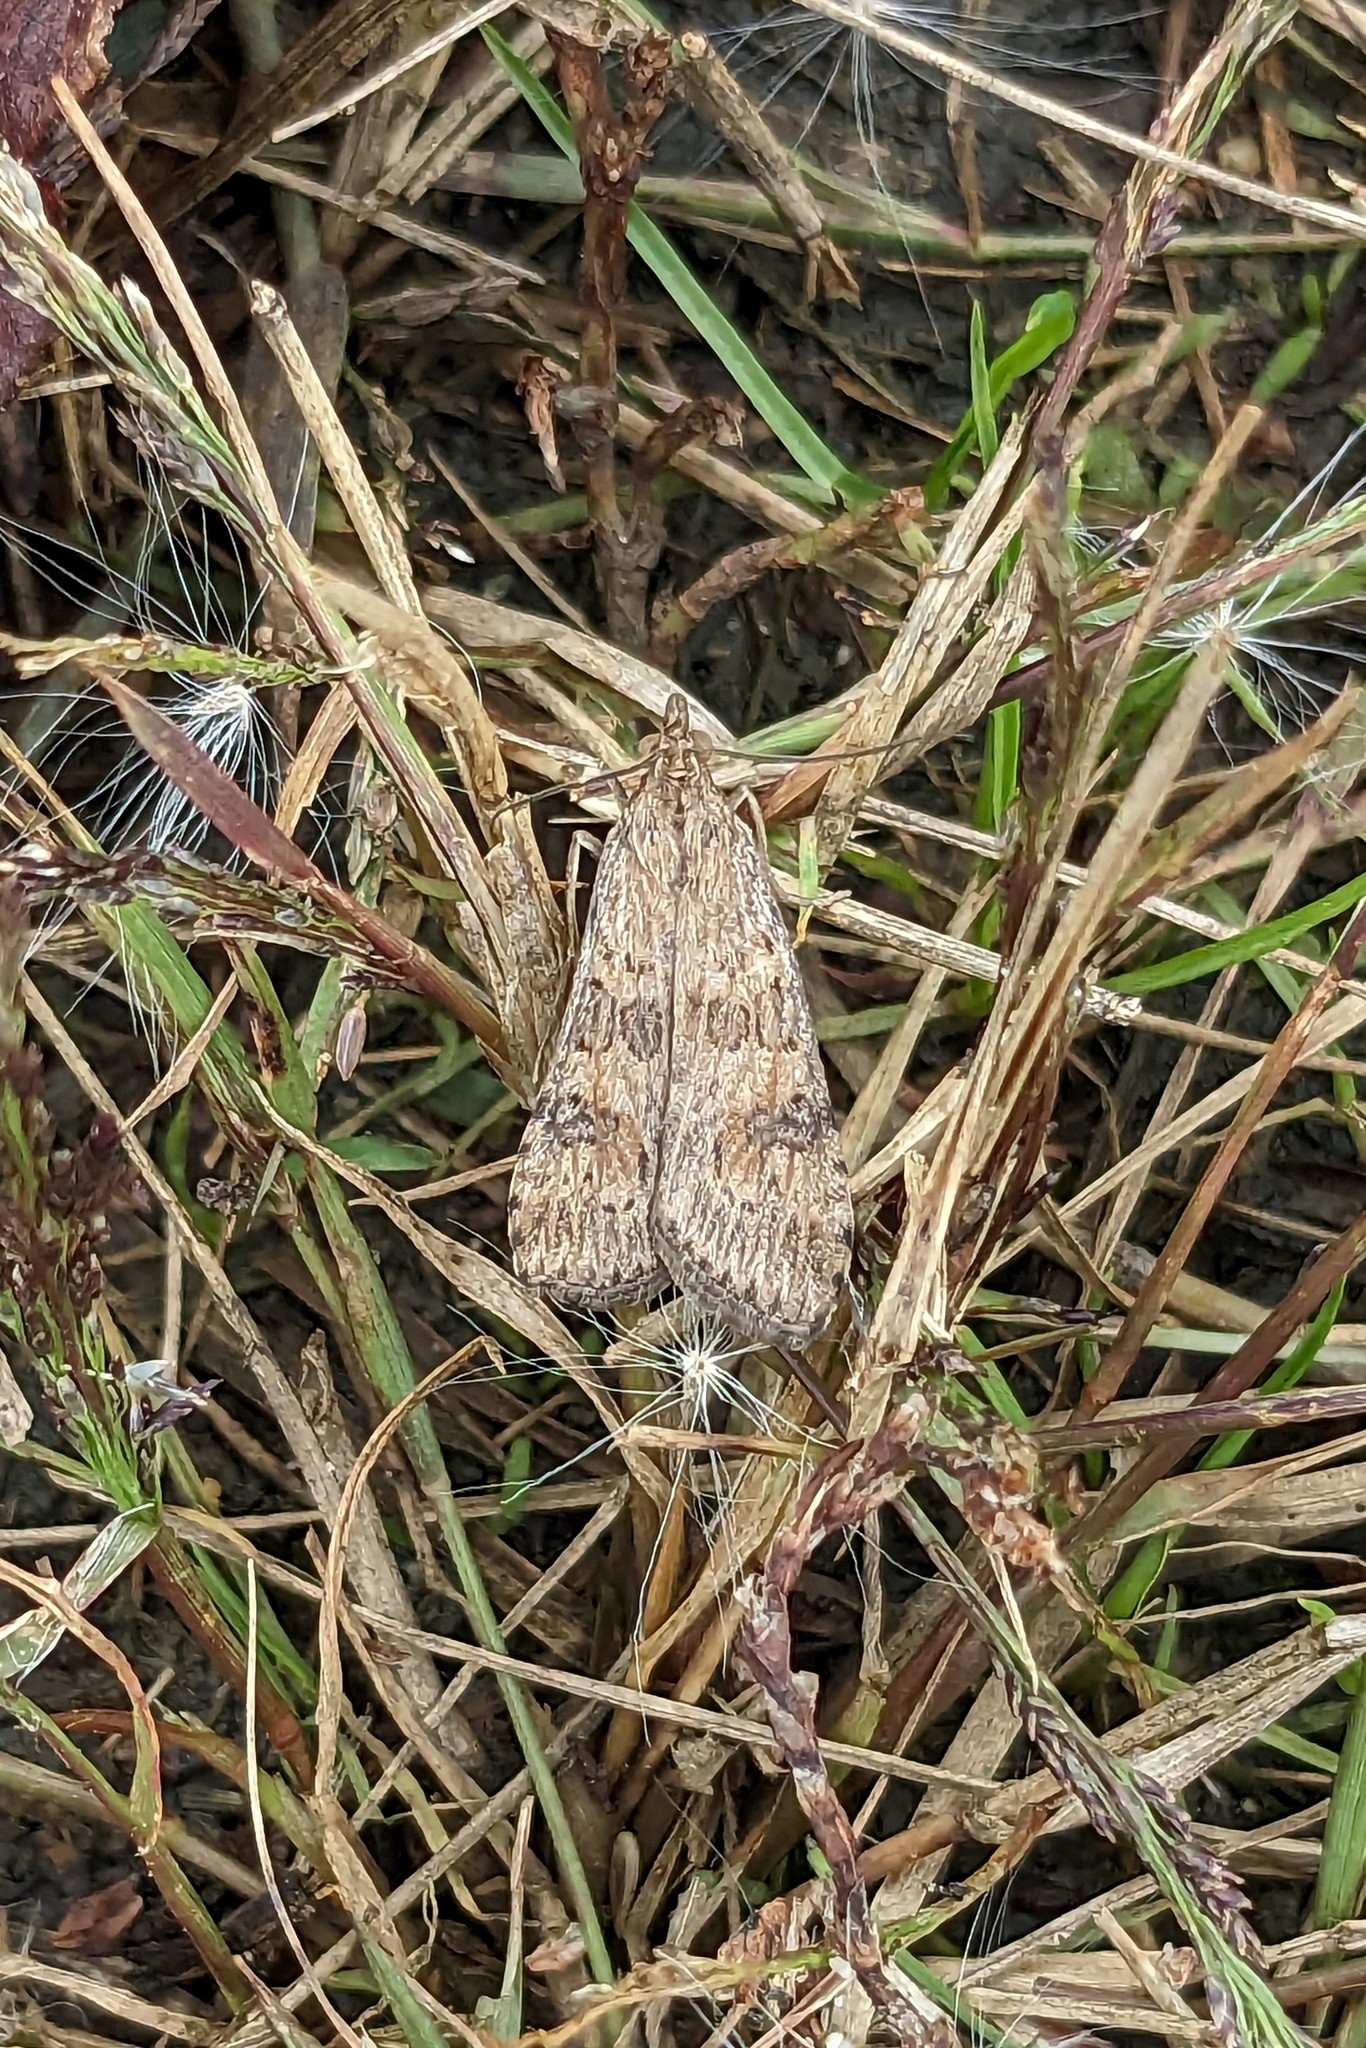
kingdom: Animalia
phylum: Arthropoda
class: Insecta
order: Lepidoptera
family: Crambidae
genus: Nomophila
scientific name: Nomophila nearctica
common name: American rush veneer
